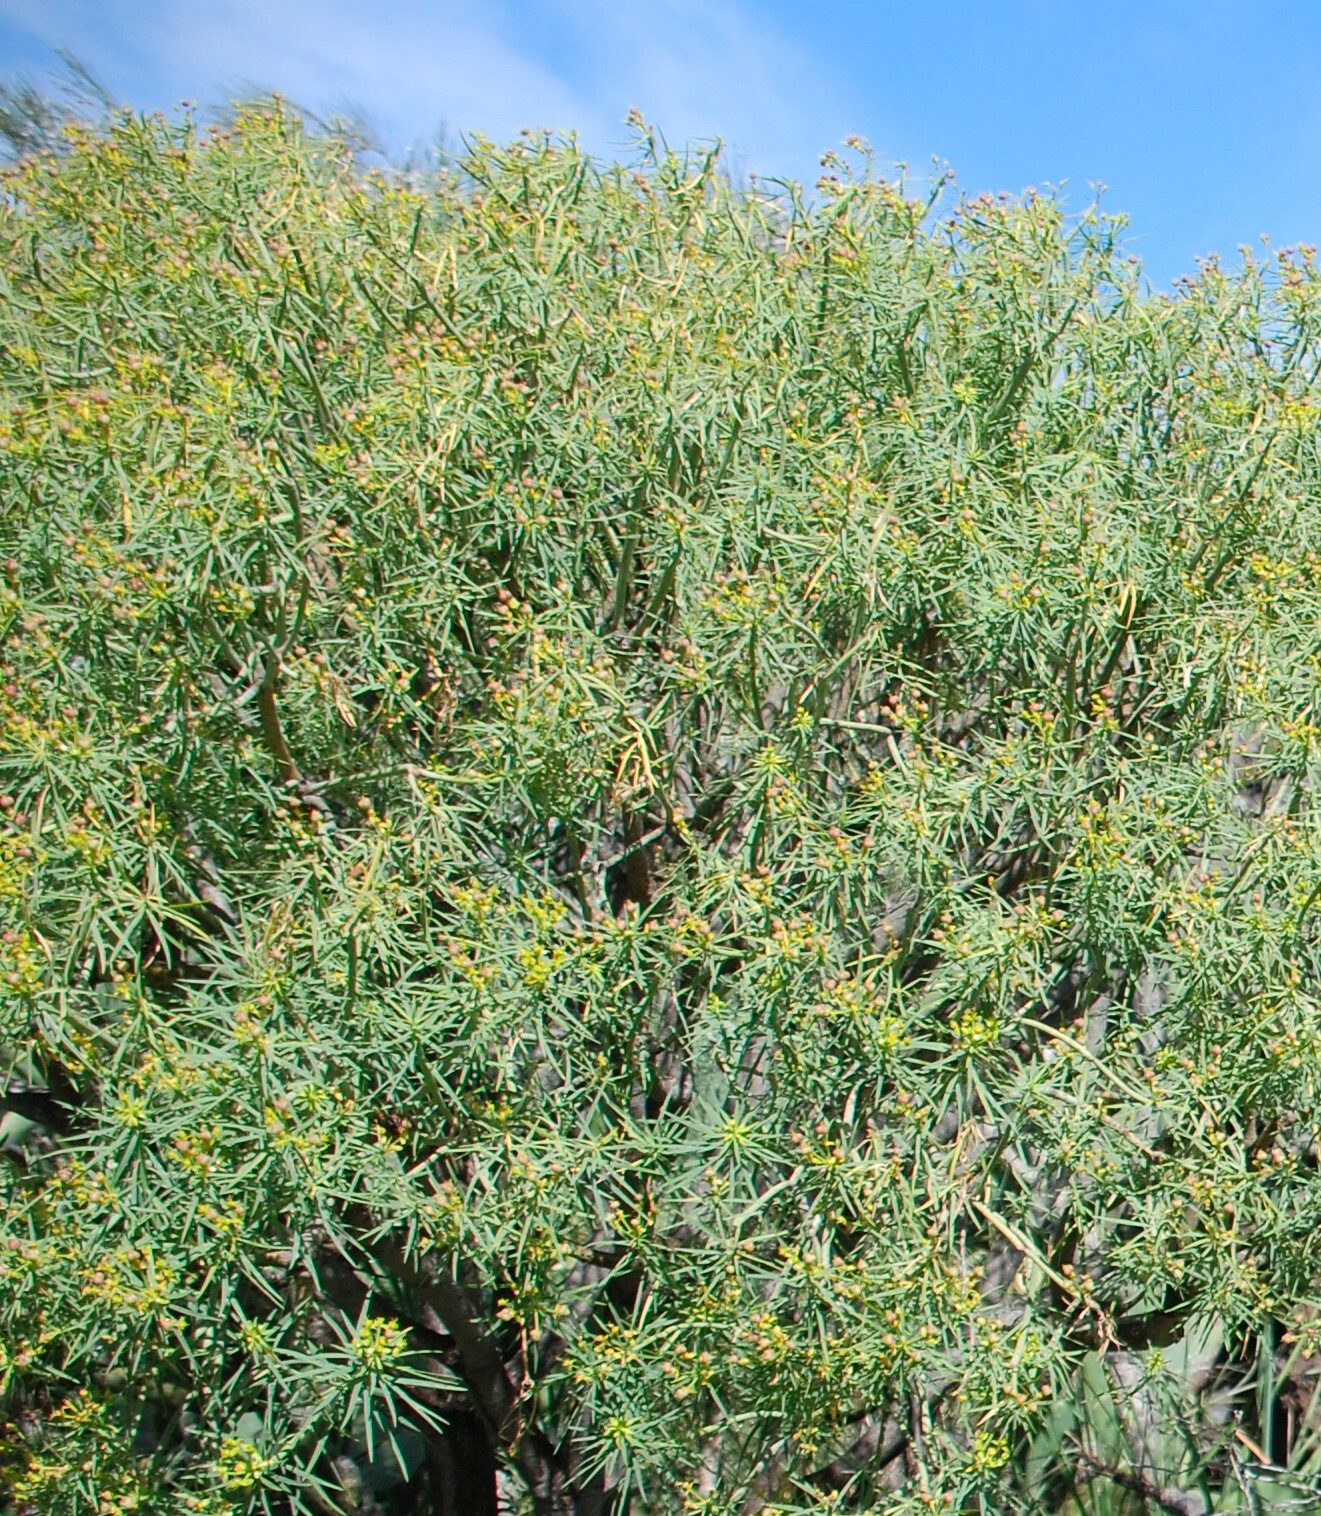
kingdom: Plantae
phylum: Tracheophyta
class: Magnoliopsida
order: Malpighiales
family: Euphorbiaceae
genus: Euphorbia
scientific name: Euphorbia lamarckii
